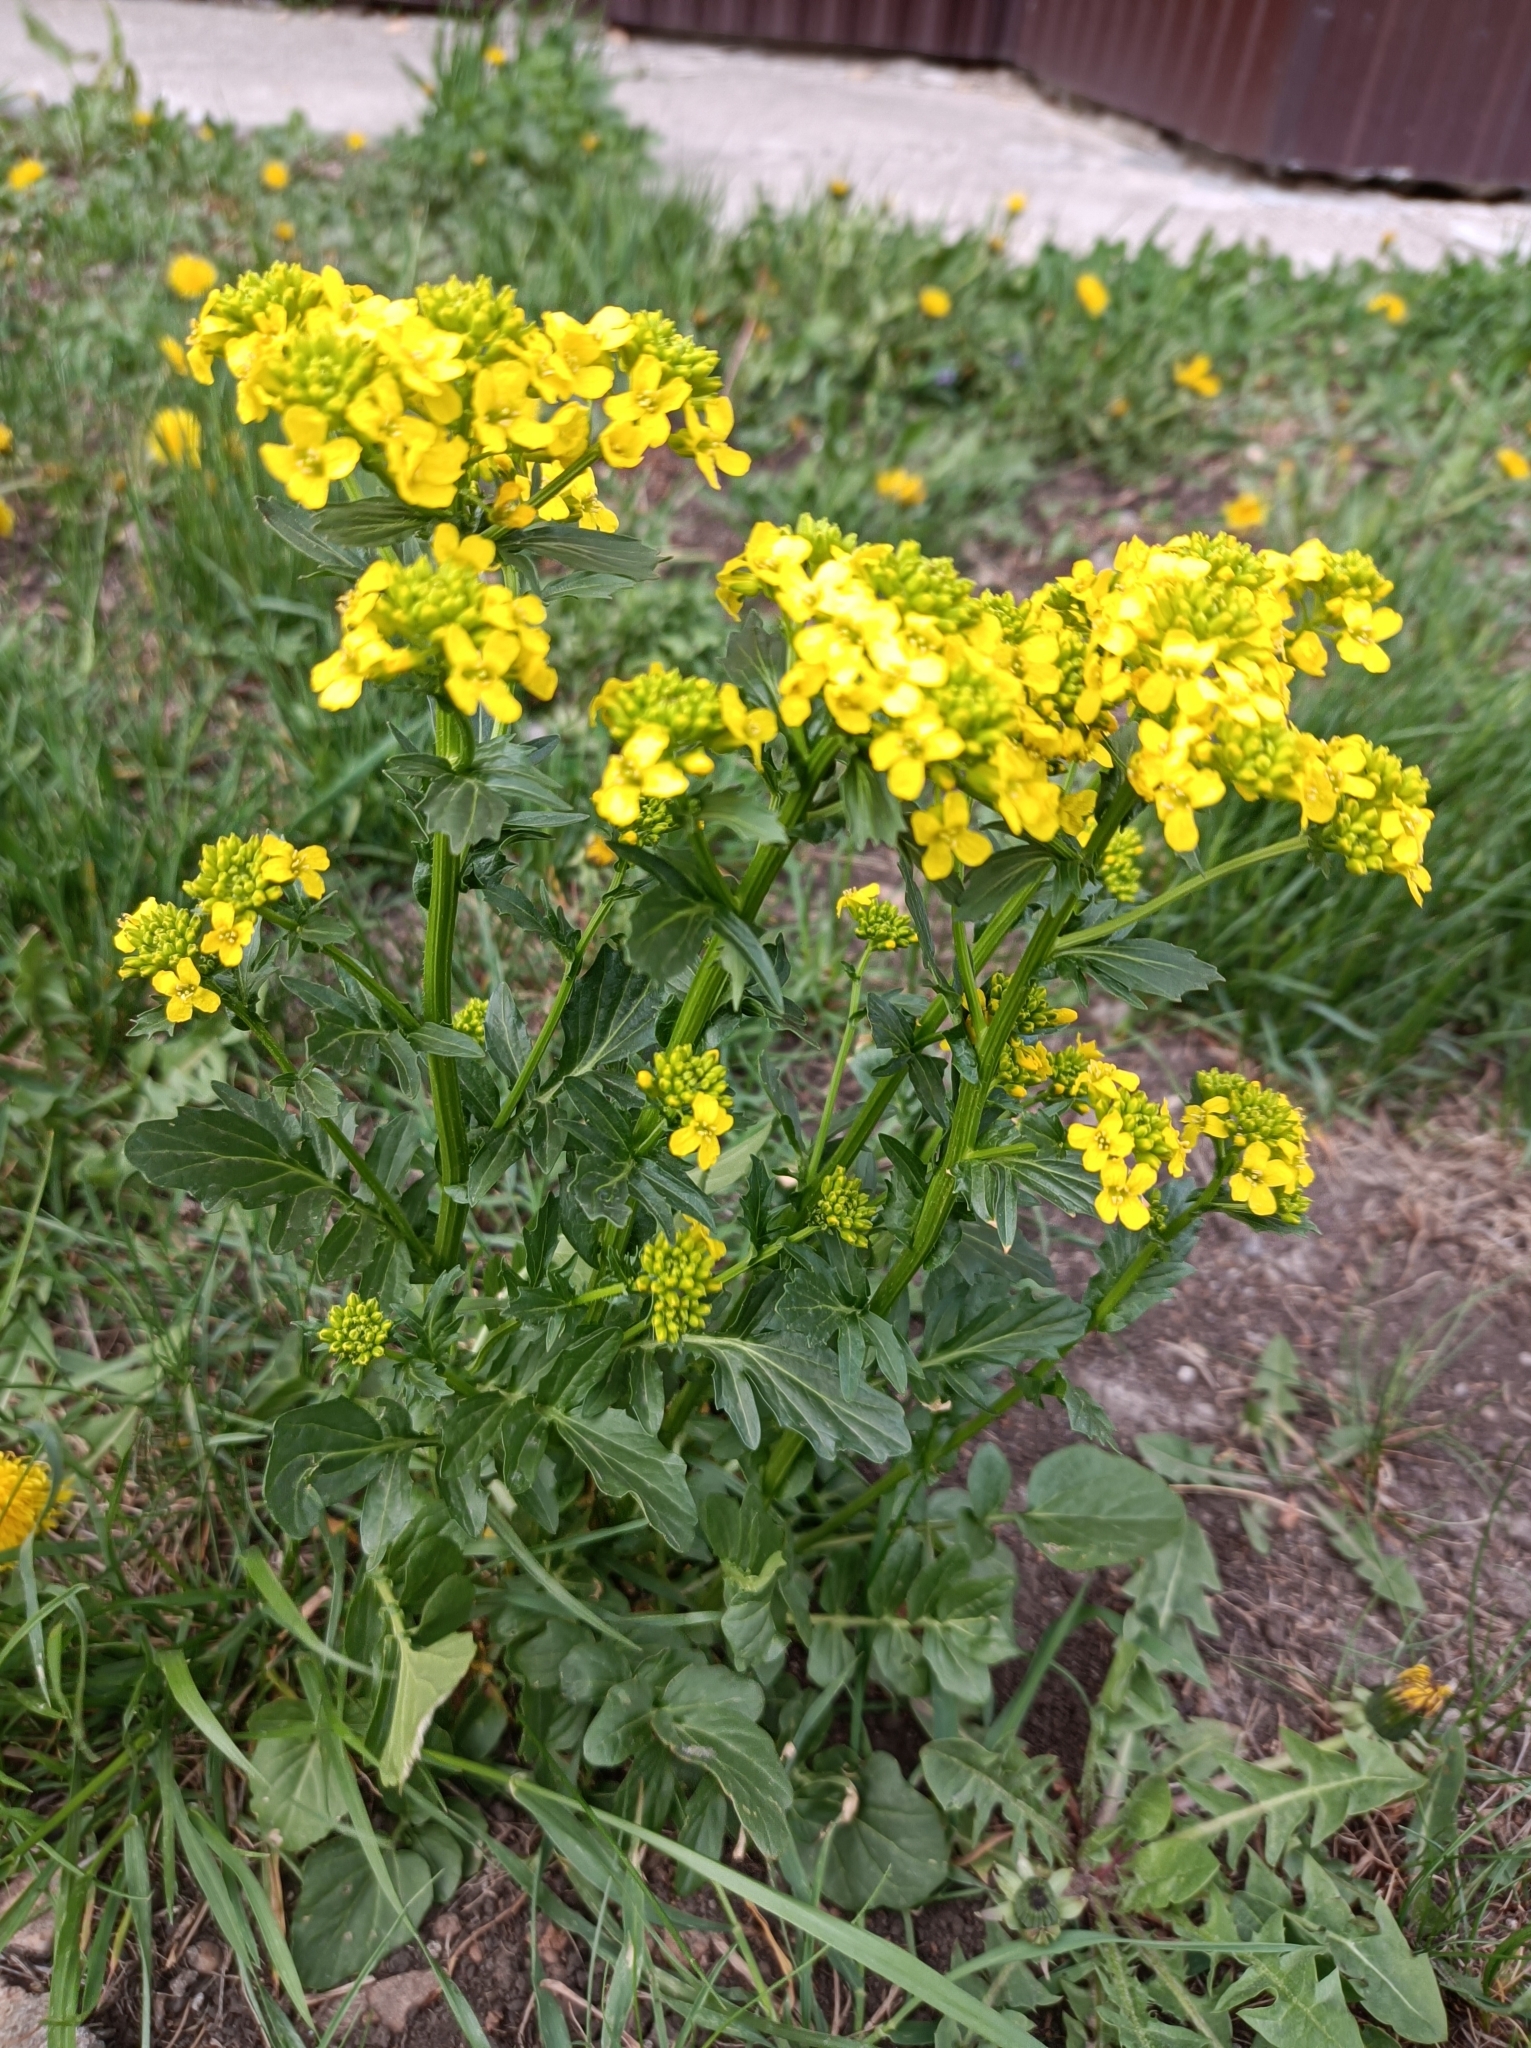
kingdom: Plantae
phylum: Tracheophyta
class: Magnoliopsida
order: Brassicales
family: Brassicaceae
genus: Barbarea
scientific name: Barbarea vulgaris
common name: Cressy-greens
